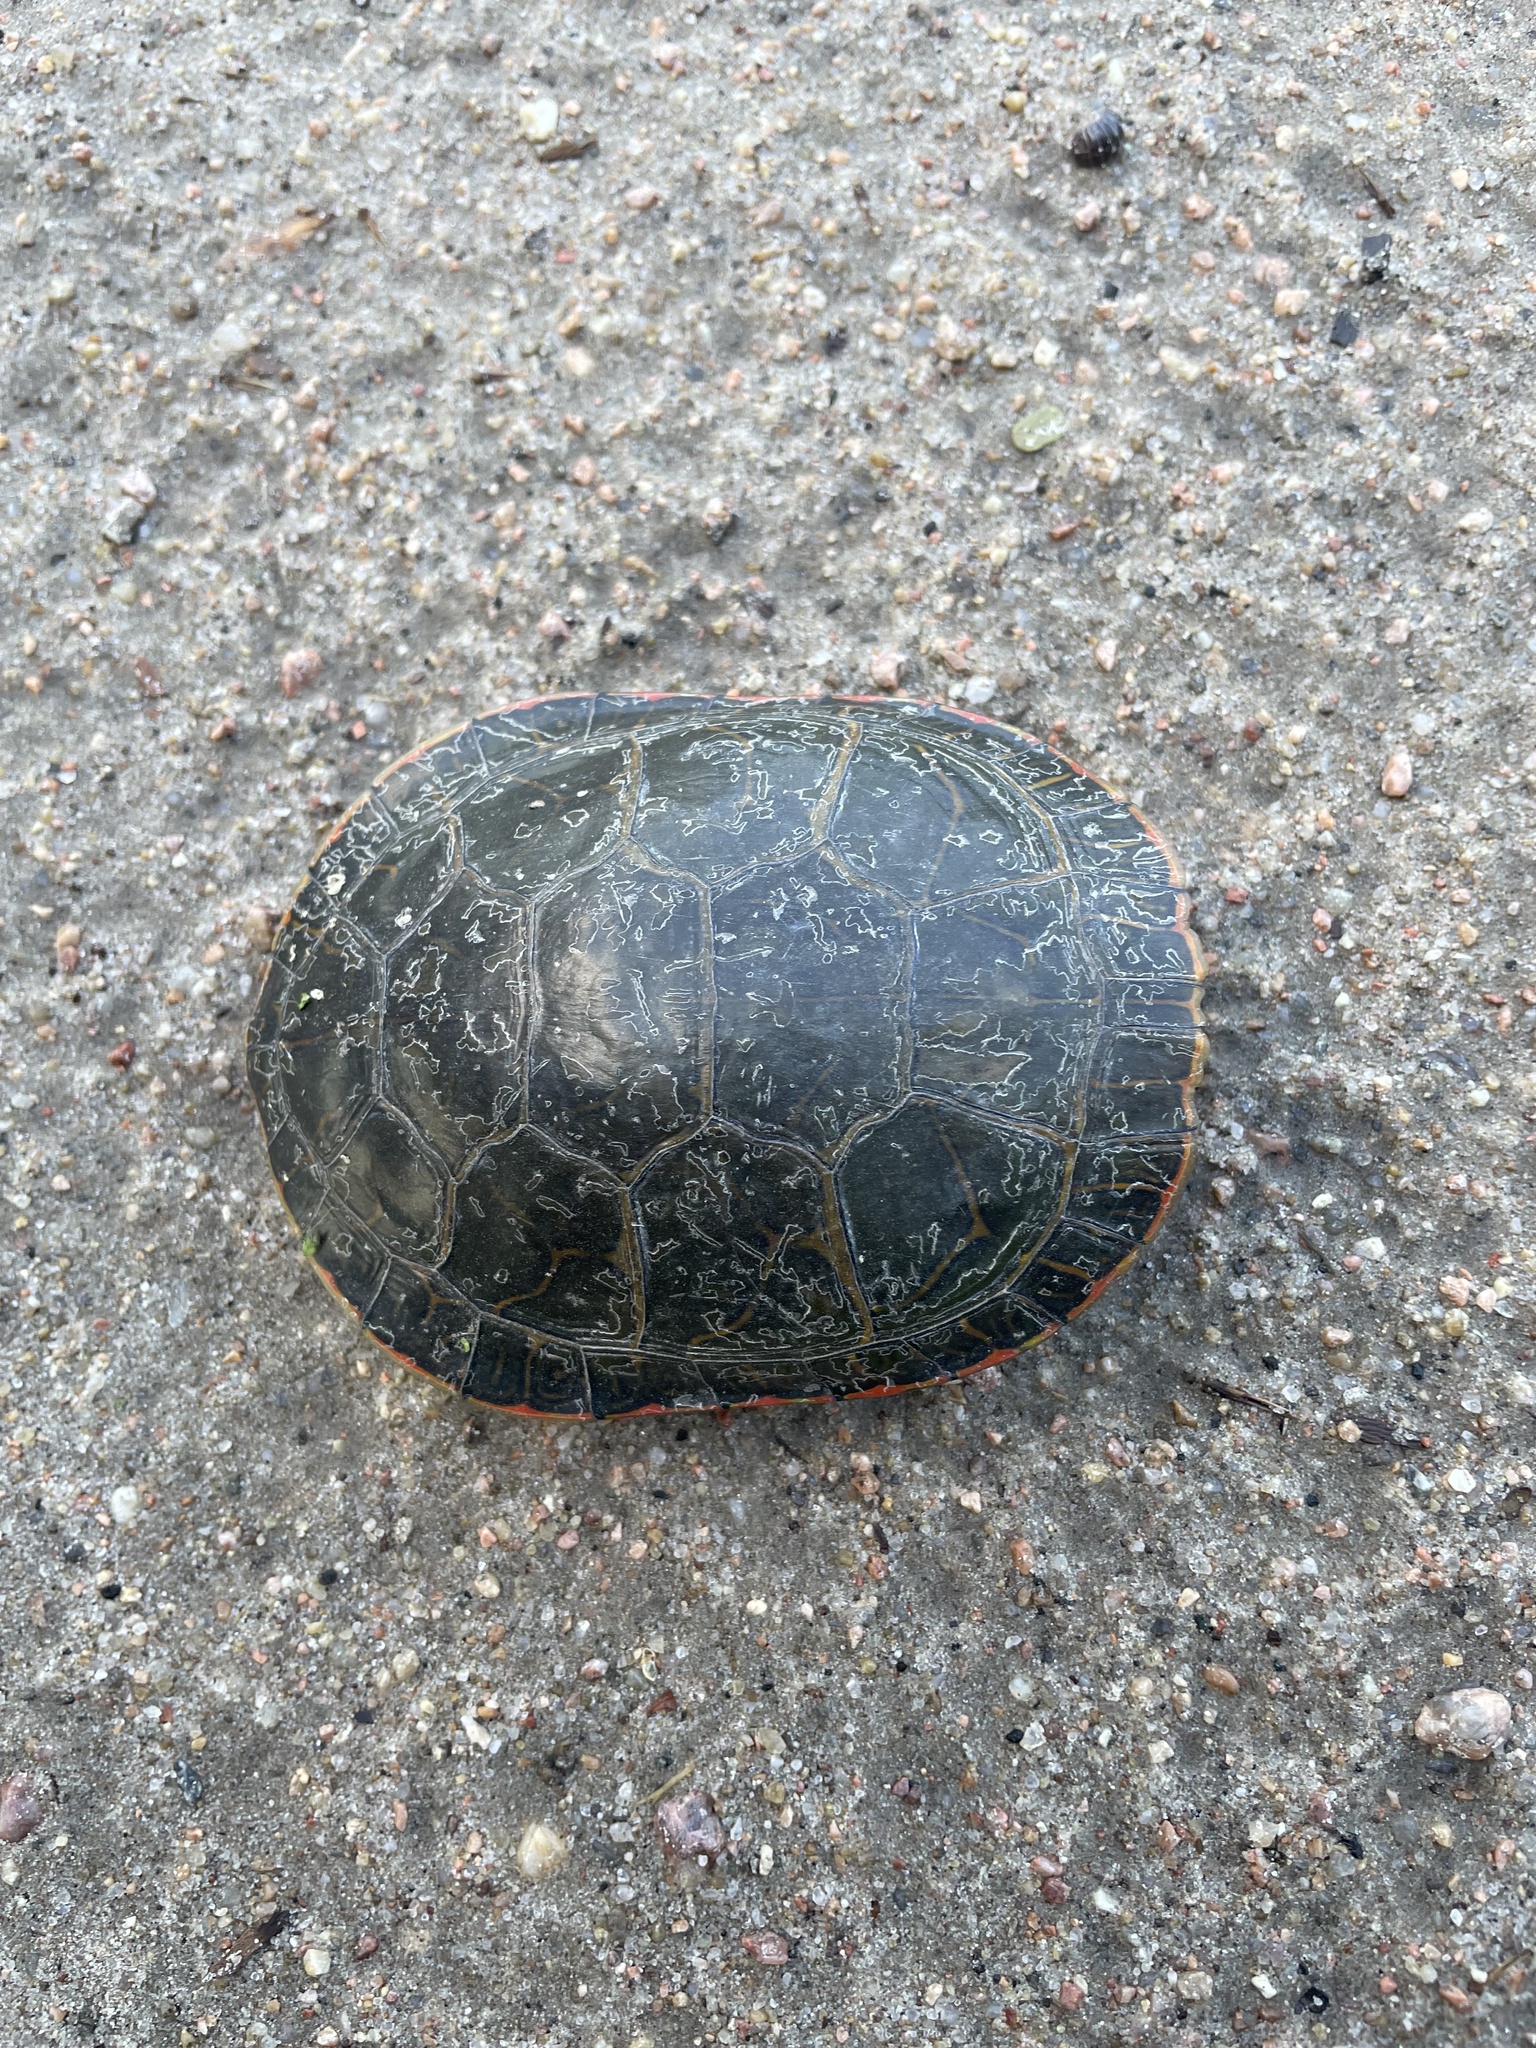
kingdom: Animalia
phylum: Chordata
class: Testudines
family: Emydidae
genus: Chrysemys
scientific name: Chrysemys picta
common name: Painted turtle
